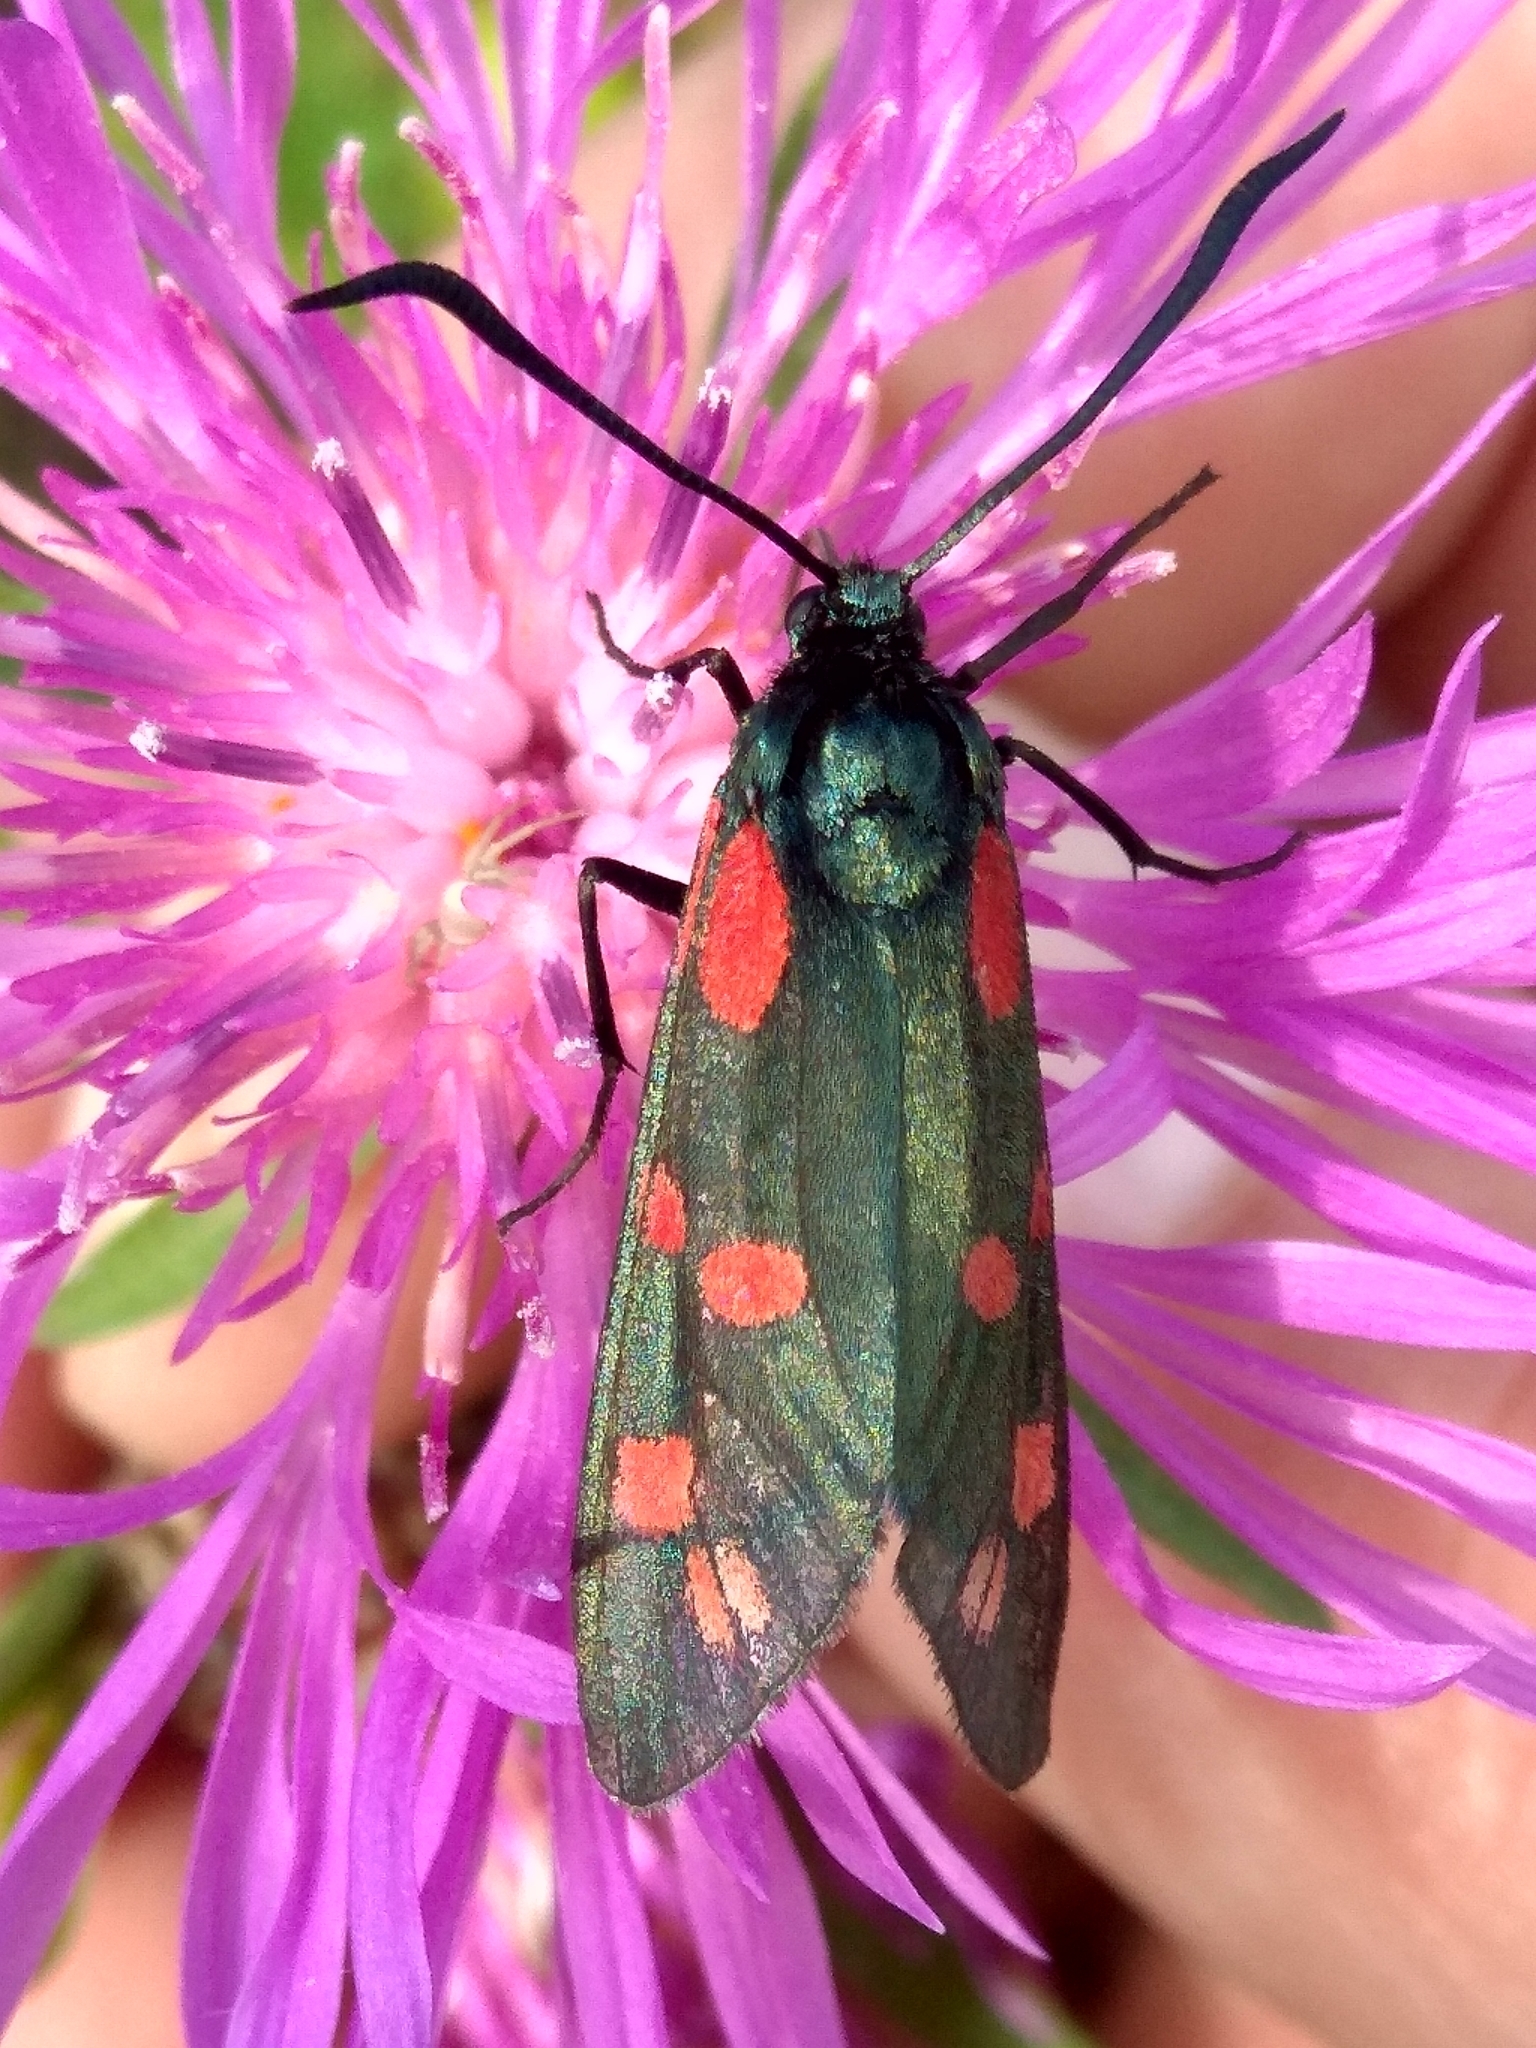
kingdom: Animalia
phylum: Arthropoda
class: Insecta
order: Lepidoptera
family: Zygaenidae
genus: Zygaena
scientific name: Zygaena filipendulae
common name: Six-spot burnet
